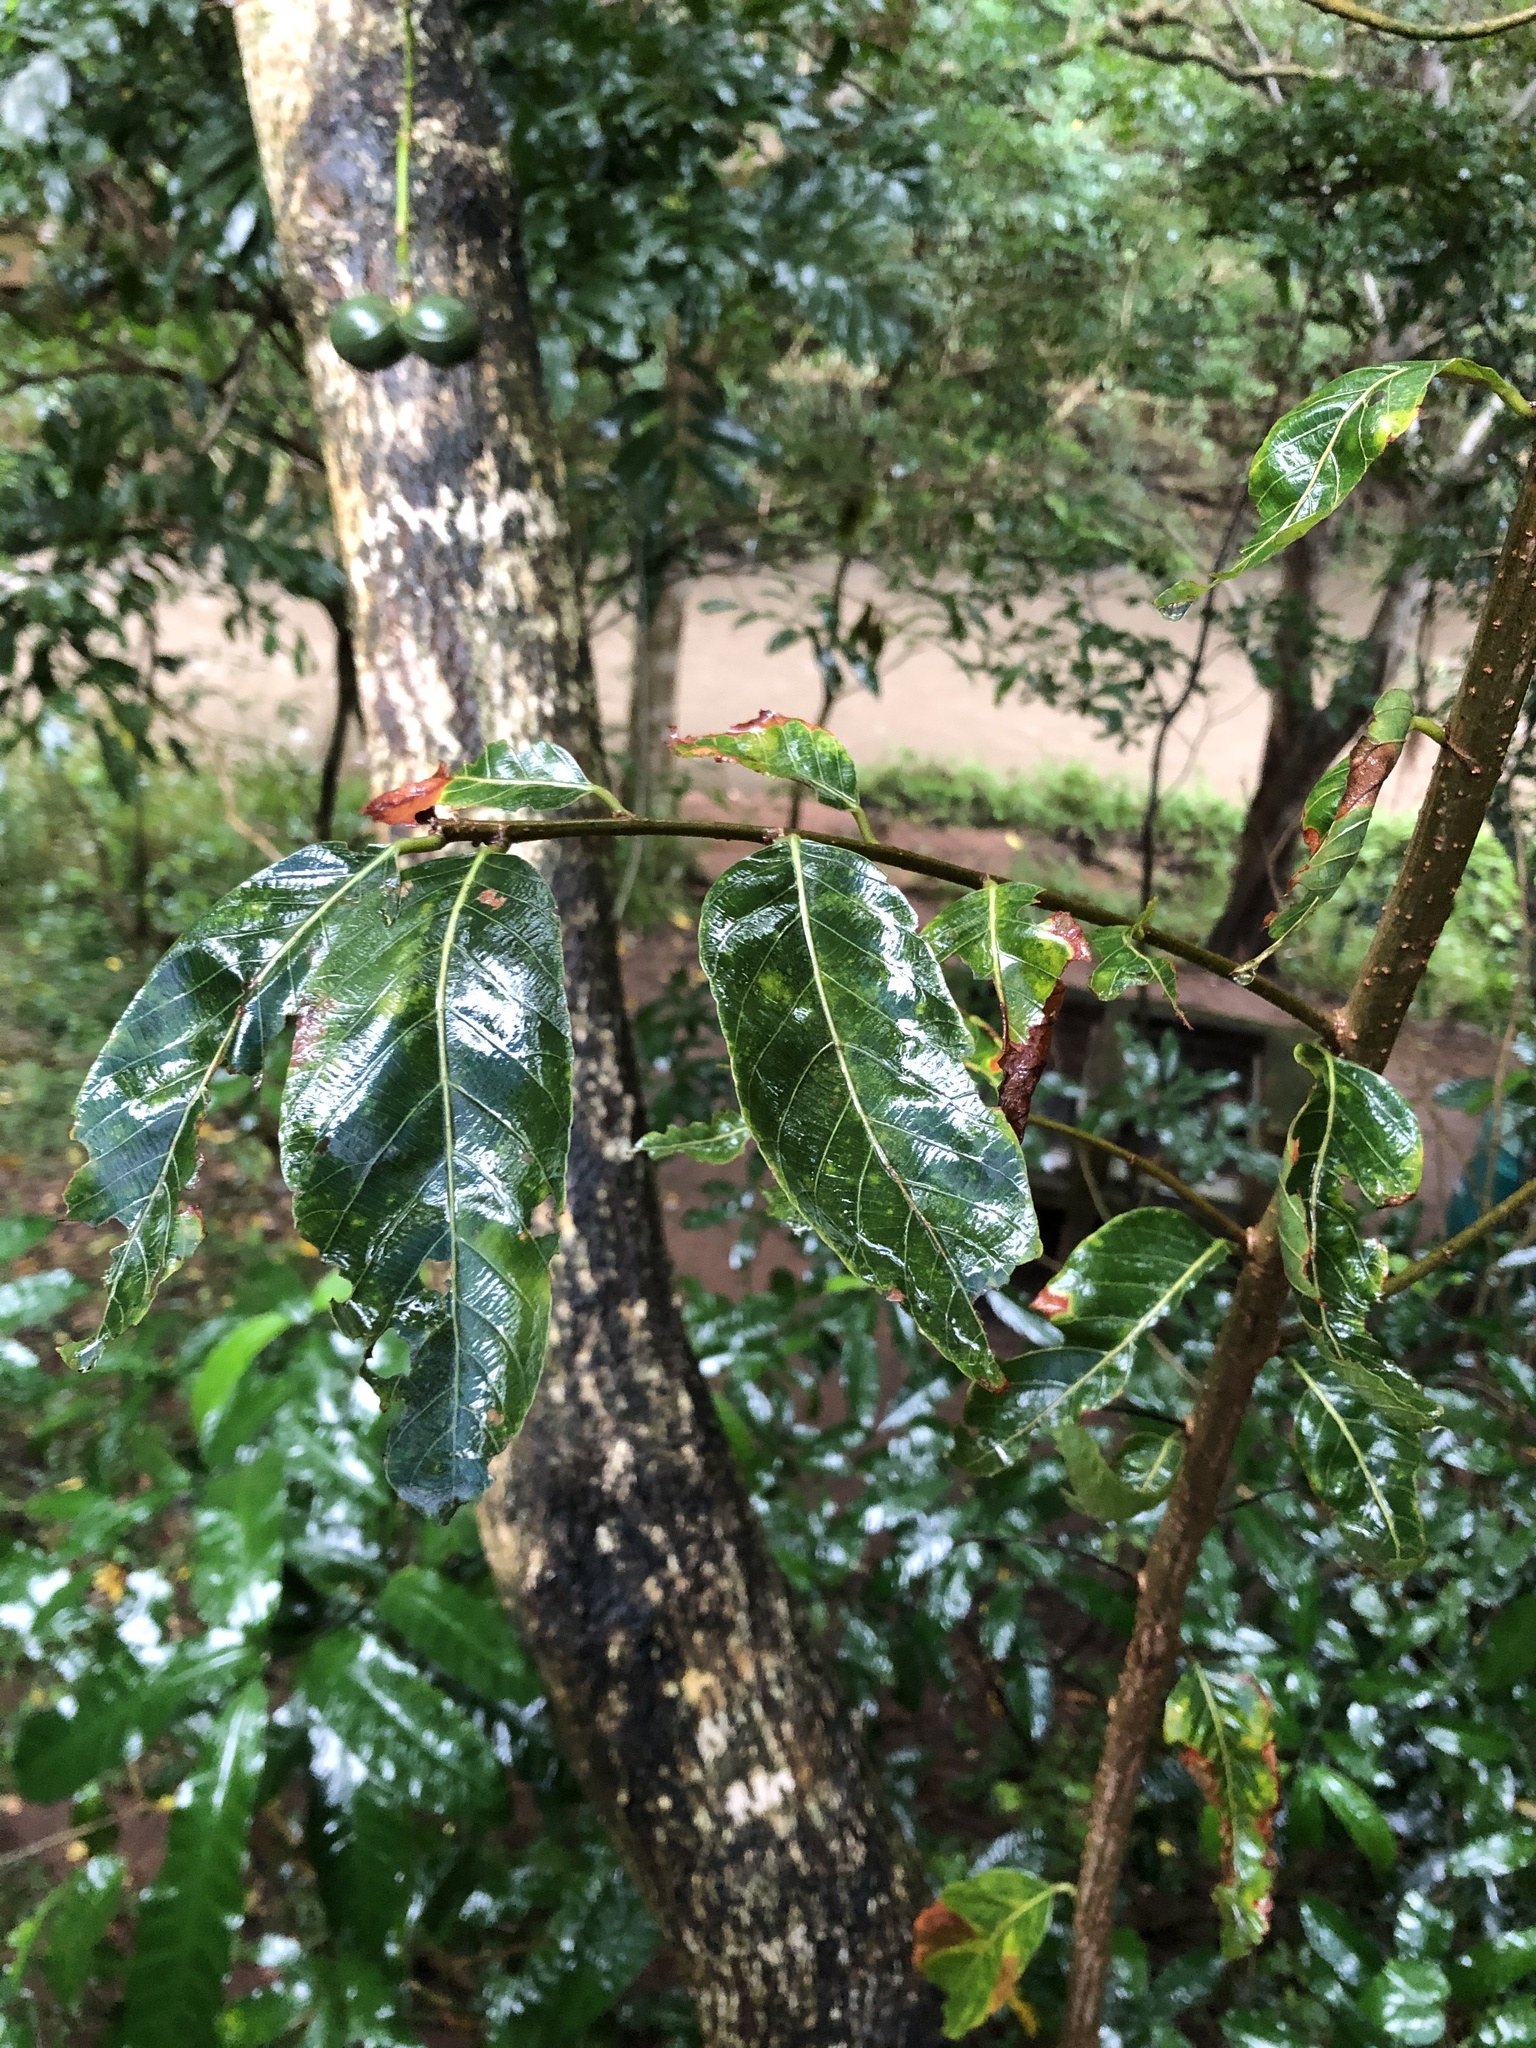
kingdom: Plantae
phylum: Tracheophyta
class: Magnoliopsida
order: Malpighiales
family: Phyllanthaceae
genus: Bridelia
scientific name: Bridelia micrantha
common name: Bridelia
